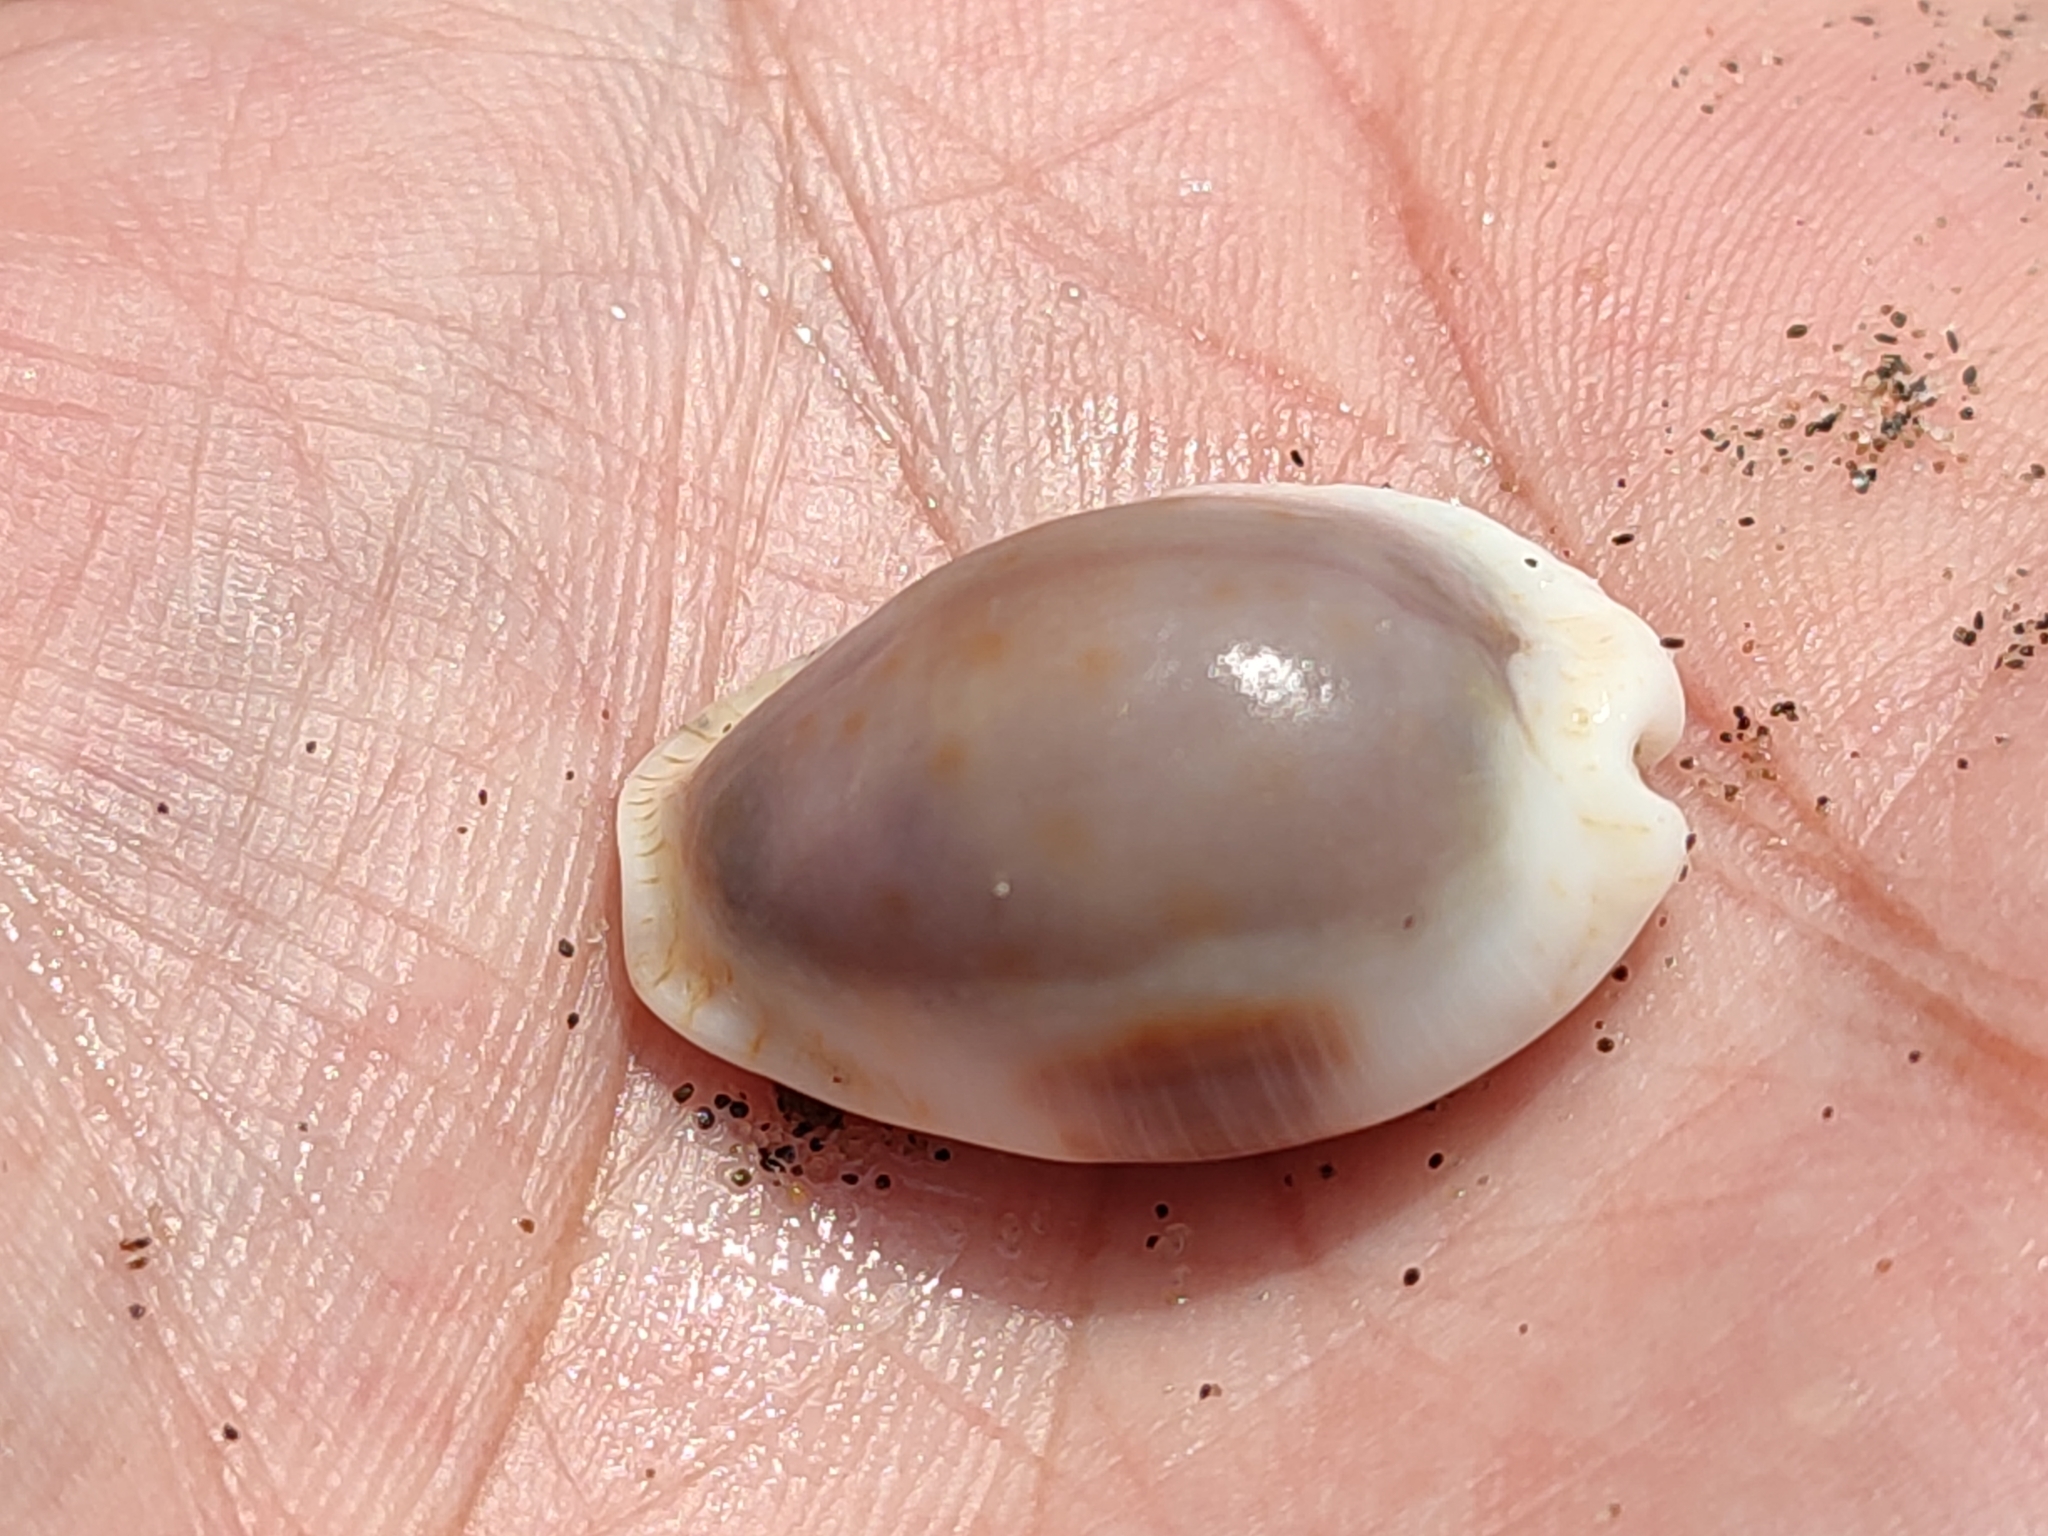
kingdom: Animalia
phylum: Mollusca
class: Gastropoda
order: Littorinimorpha
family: Cypraeidae
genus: Naria
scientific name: Naria erosa
